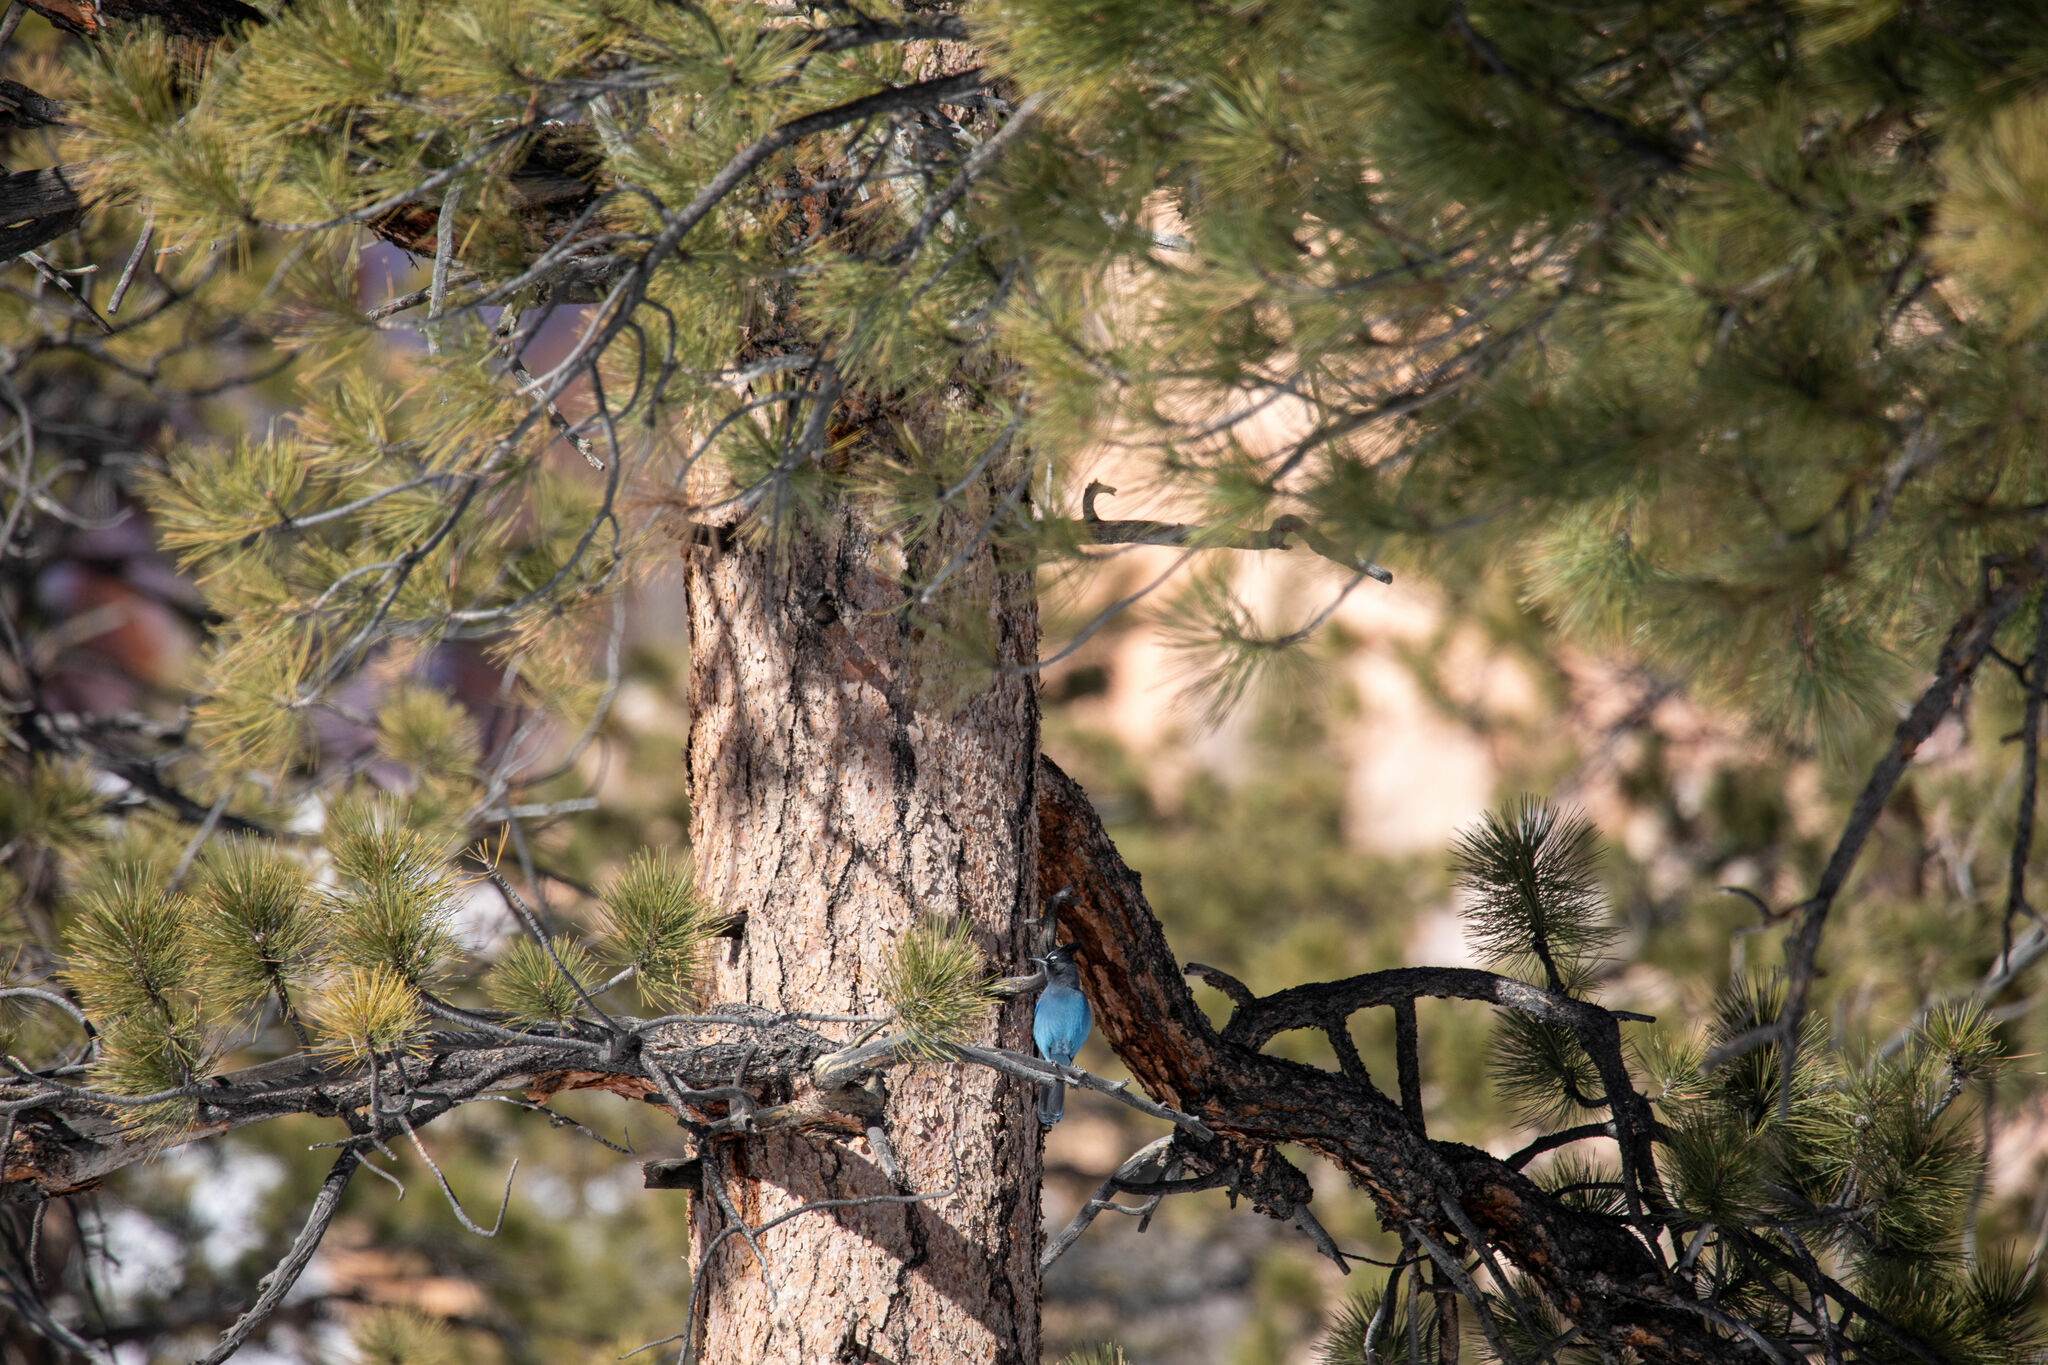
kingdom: Animalia
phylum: Chordata
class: Aves
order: Passeriformes
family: Corvidae
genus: Cyanocitta
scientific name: Cyanocitta stelleri
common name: Steller's jay
